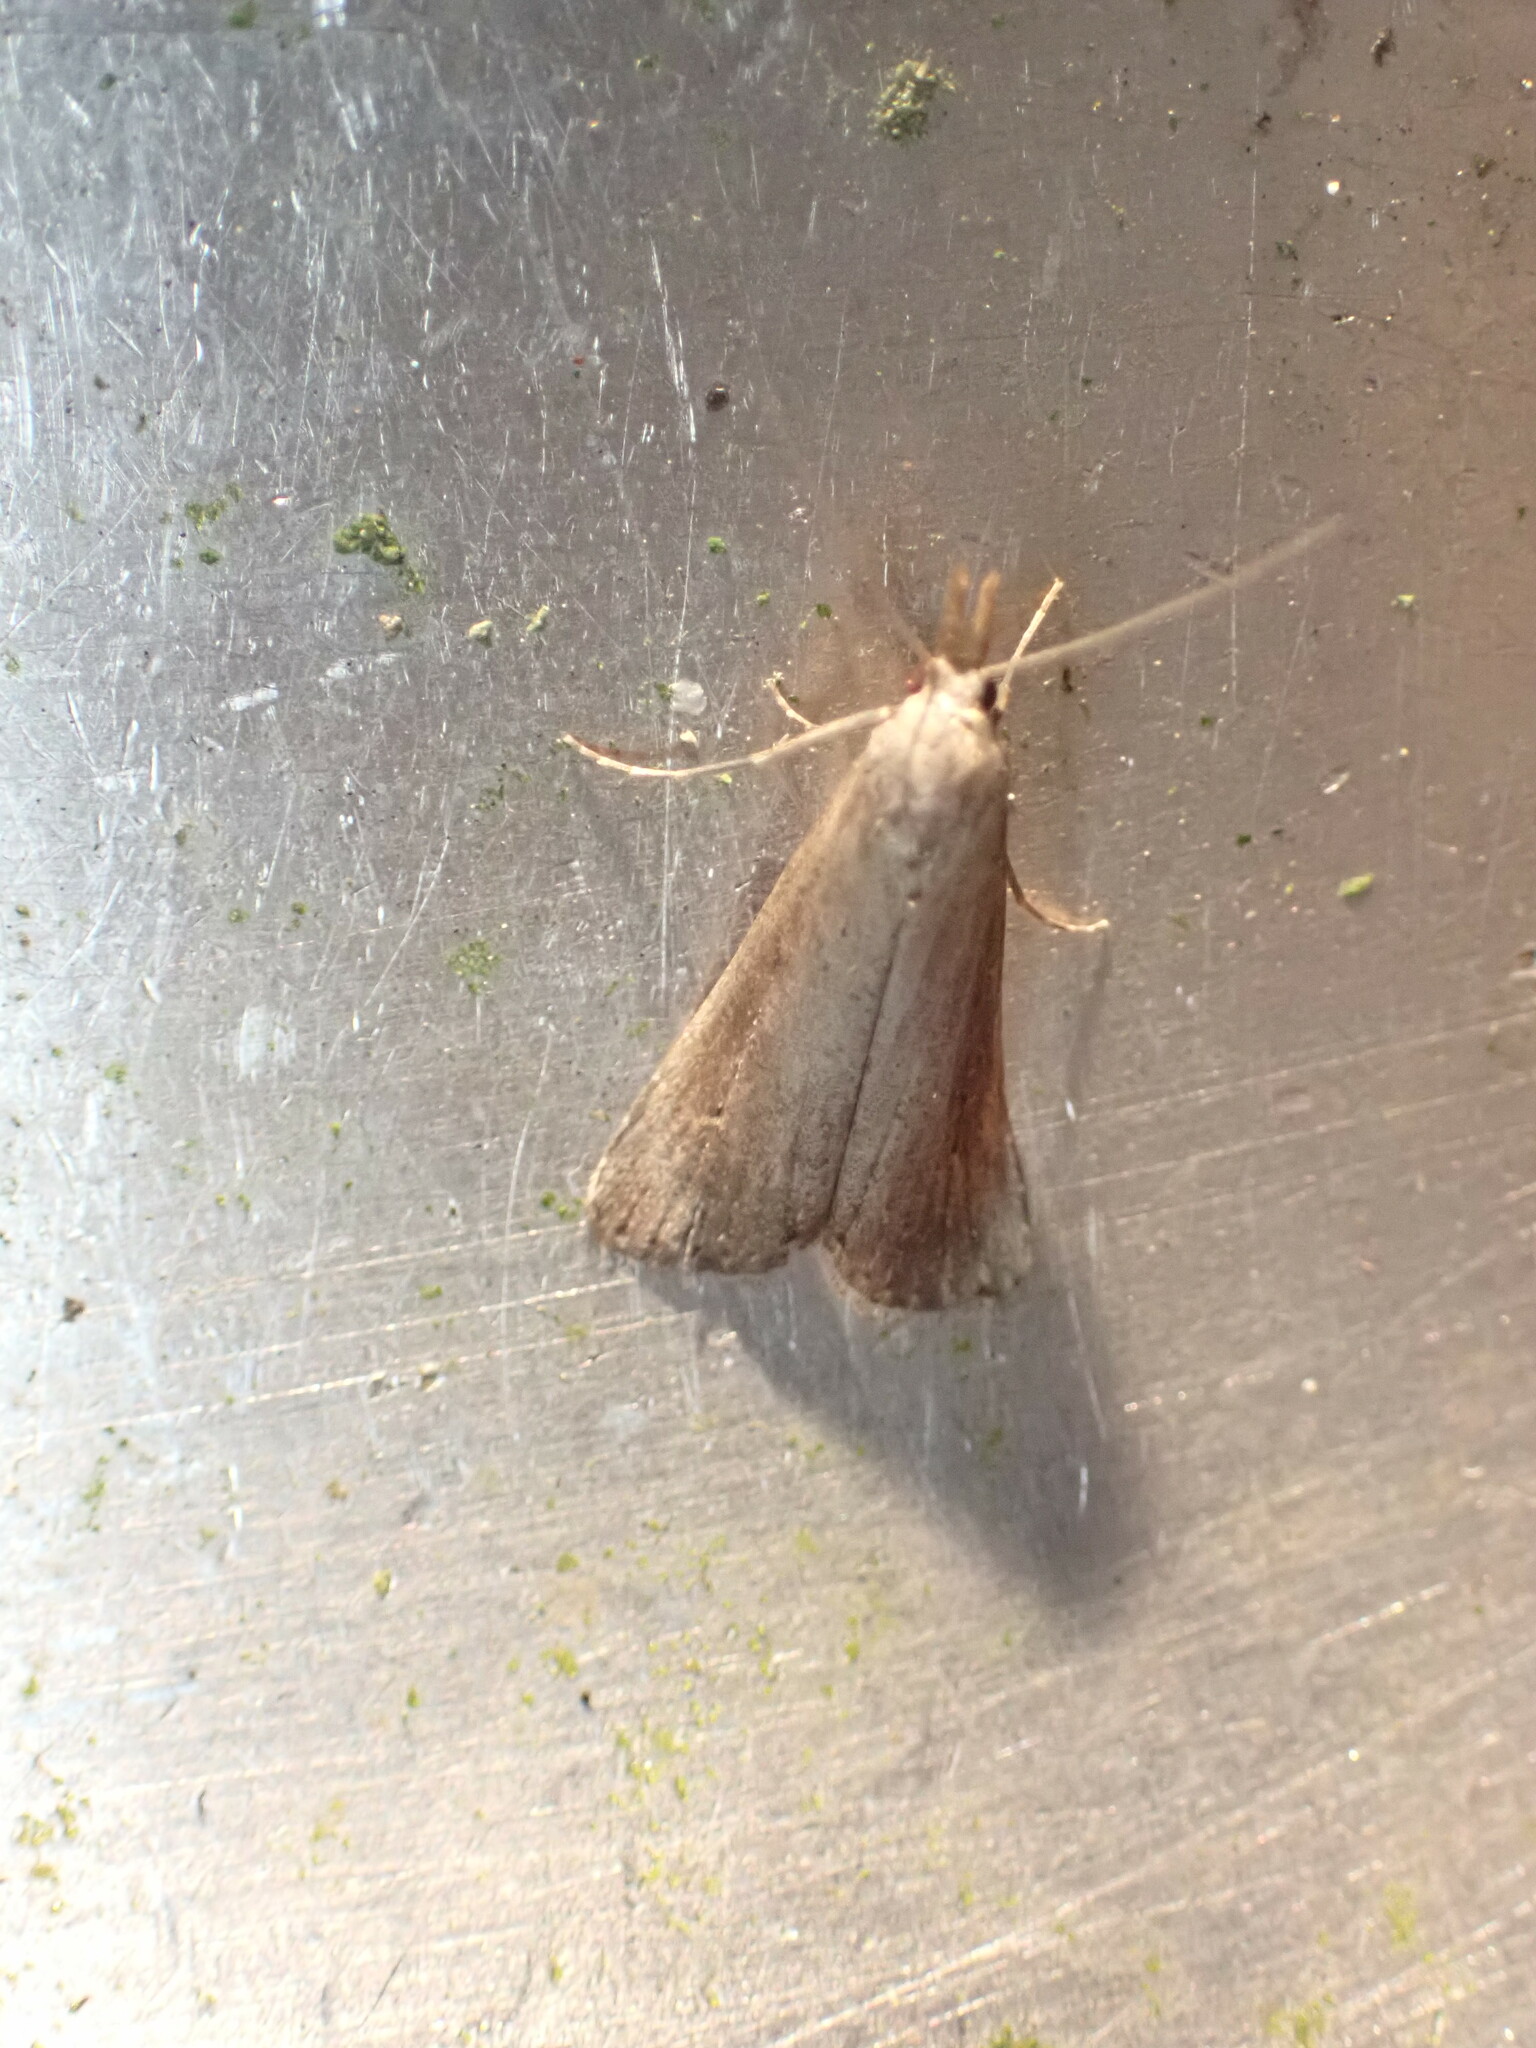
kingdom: Animalia
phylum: Arthropoda
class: Insecta
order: Lepidoptera
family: Erebidae
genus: Schrankia
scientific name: Schrankia costaestrigalis
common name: Pinion-streaked snout
